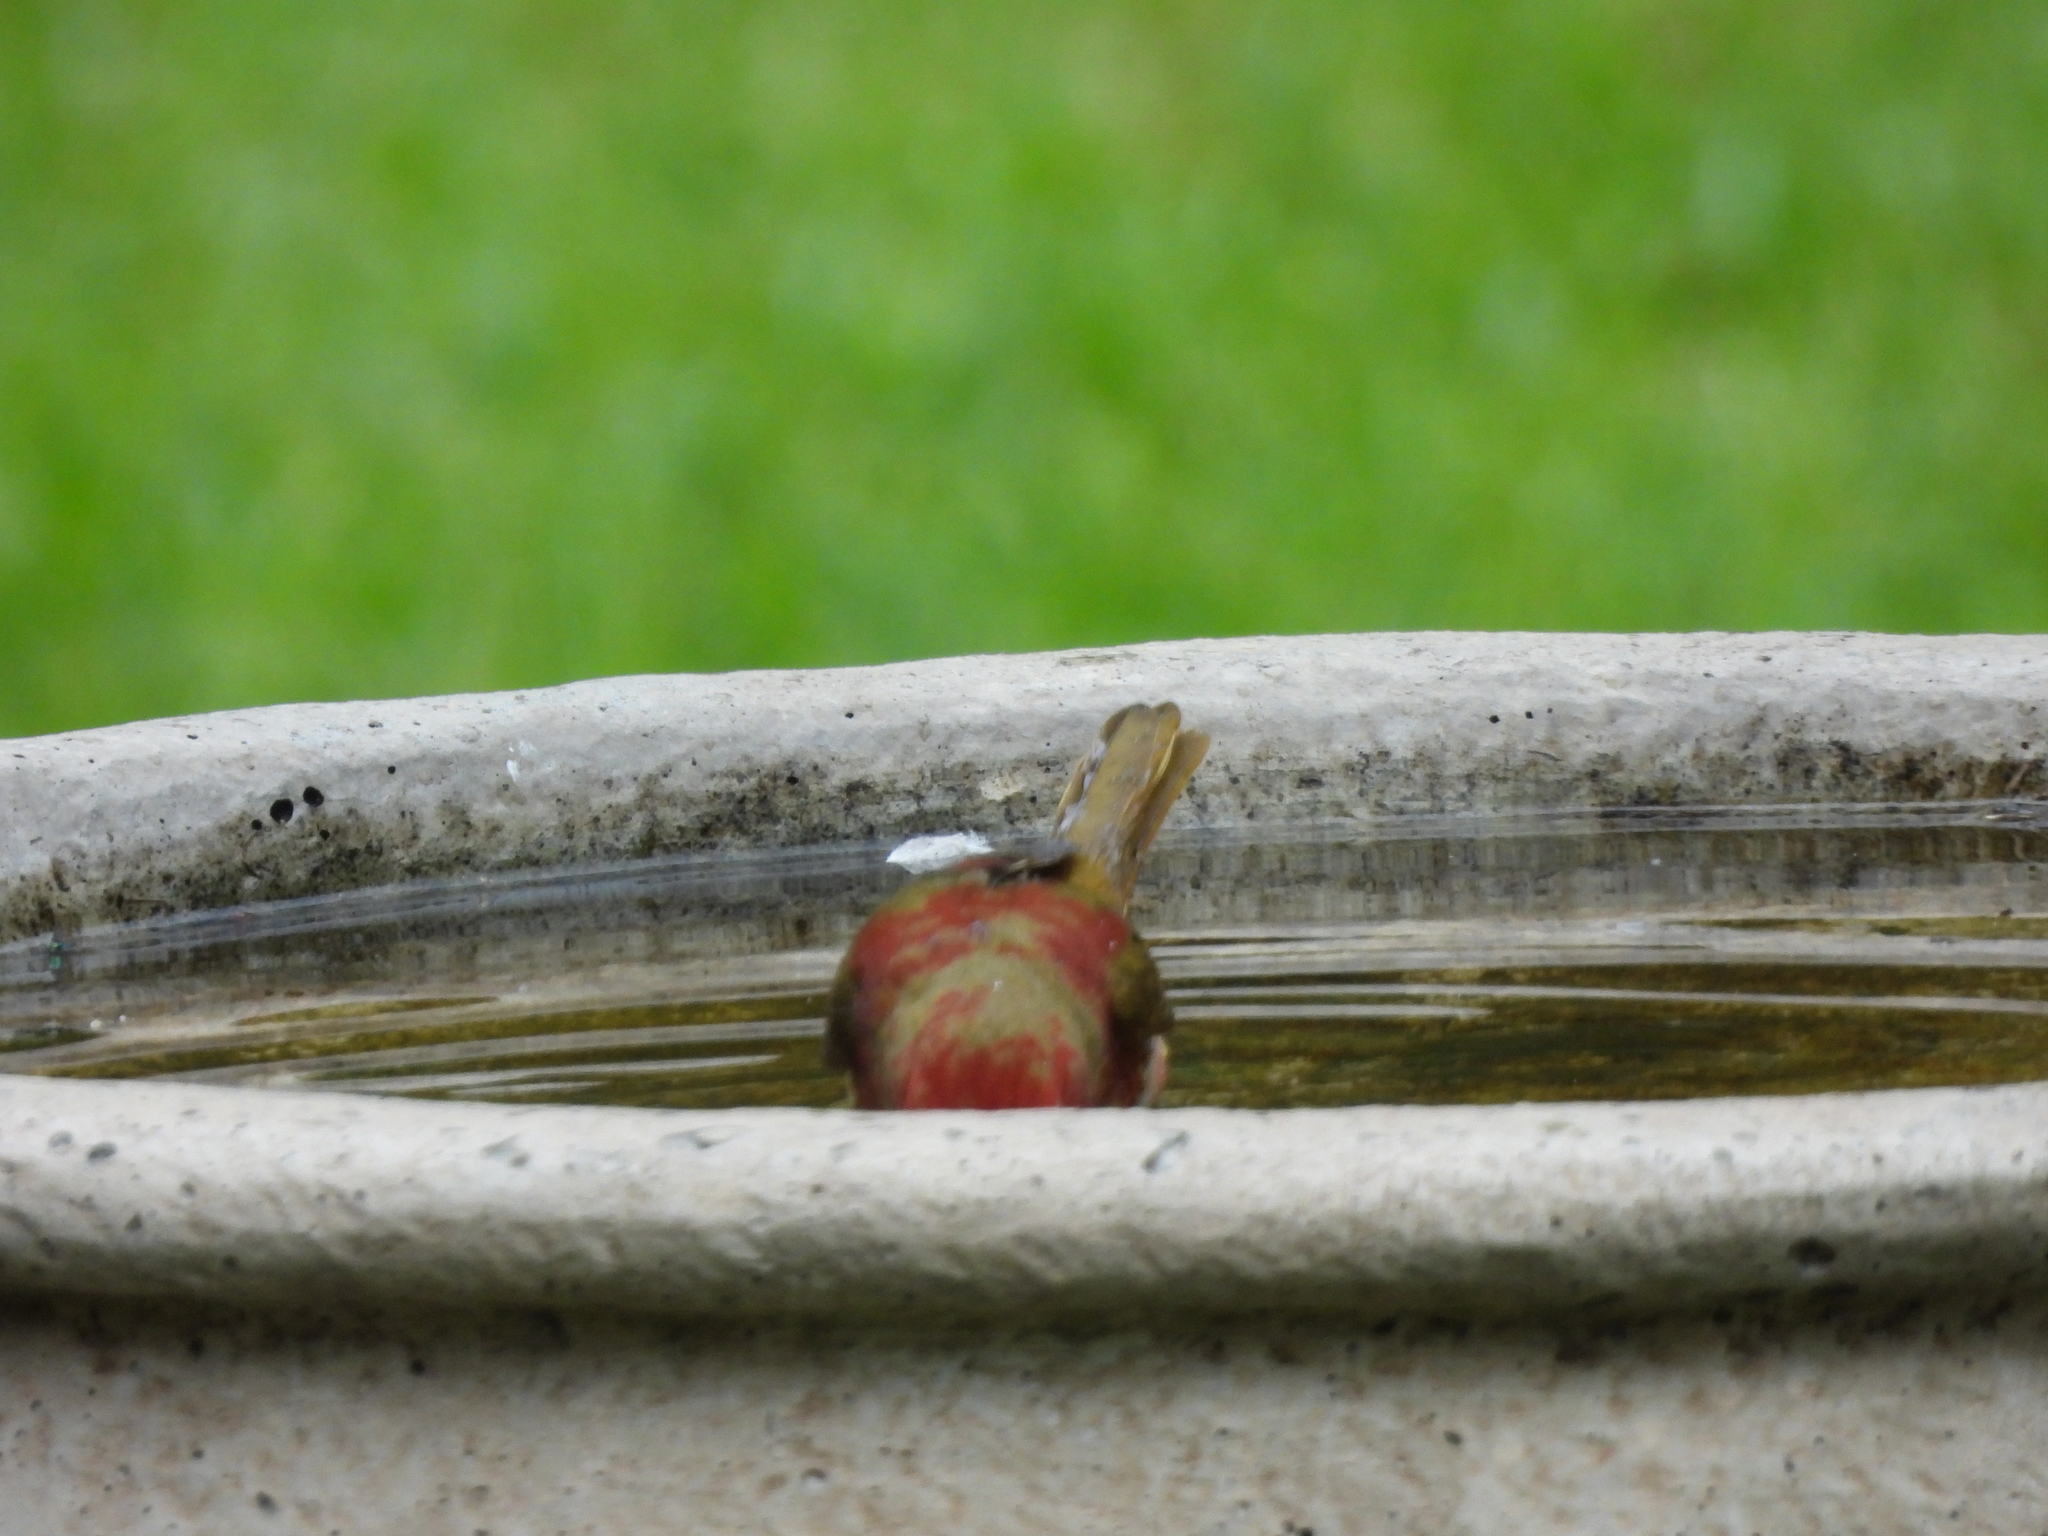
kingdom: Animalia
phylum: Chordata
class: Aves
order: Passeriformes
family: Cardinalidae
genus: Piranga
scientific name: Piranga rubra
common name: Summer tanager
